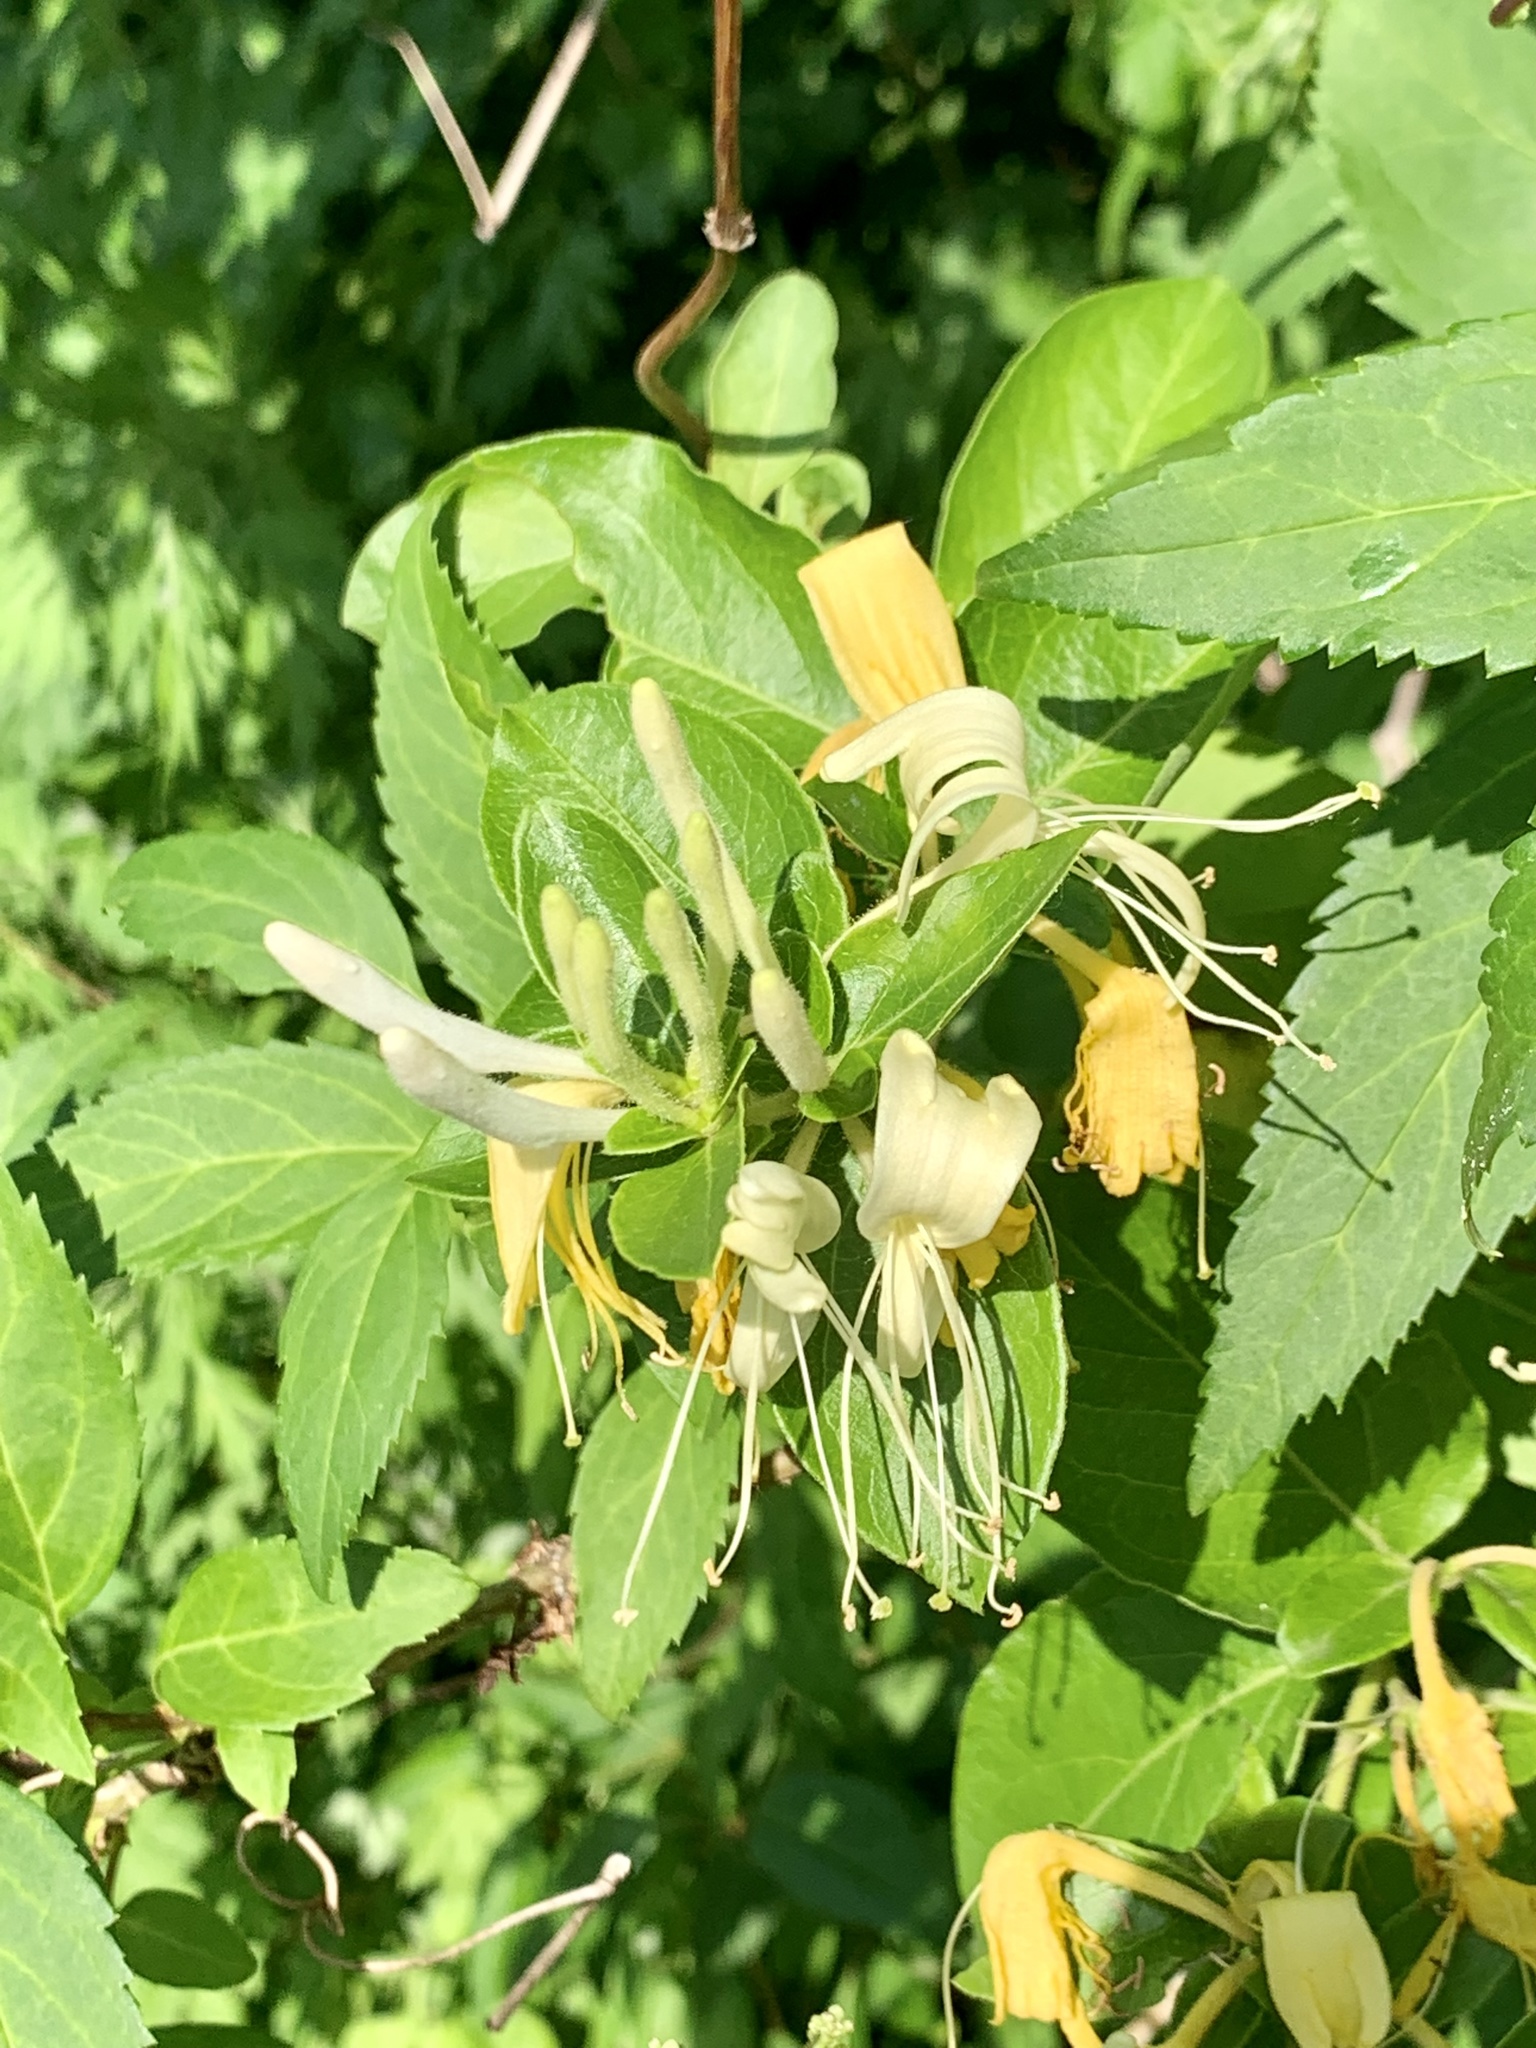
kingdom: Plantae
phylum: Tracheophyta
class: Magnoliopsida
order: Dipsacales
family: Caprifoliaceae
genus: Lonicera
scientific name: Lonicera japonica
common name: Japanese honeysuckle
